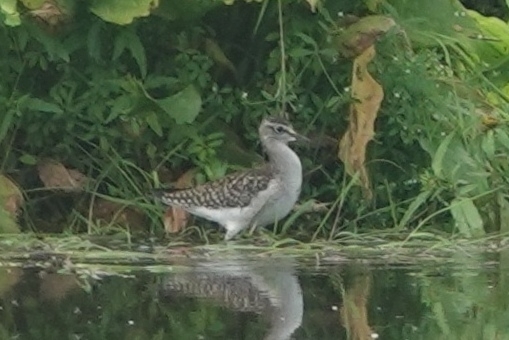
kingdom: Animalia
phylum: Chordata
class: Aves
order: Charadriiformes
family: Scolopacidae
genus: Tringa
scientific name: Tringa glareola
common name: Wood sandpiper
